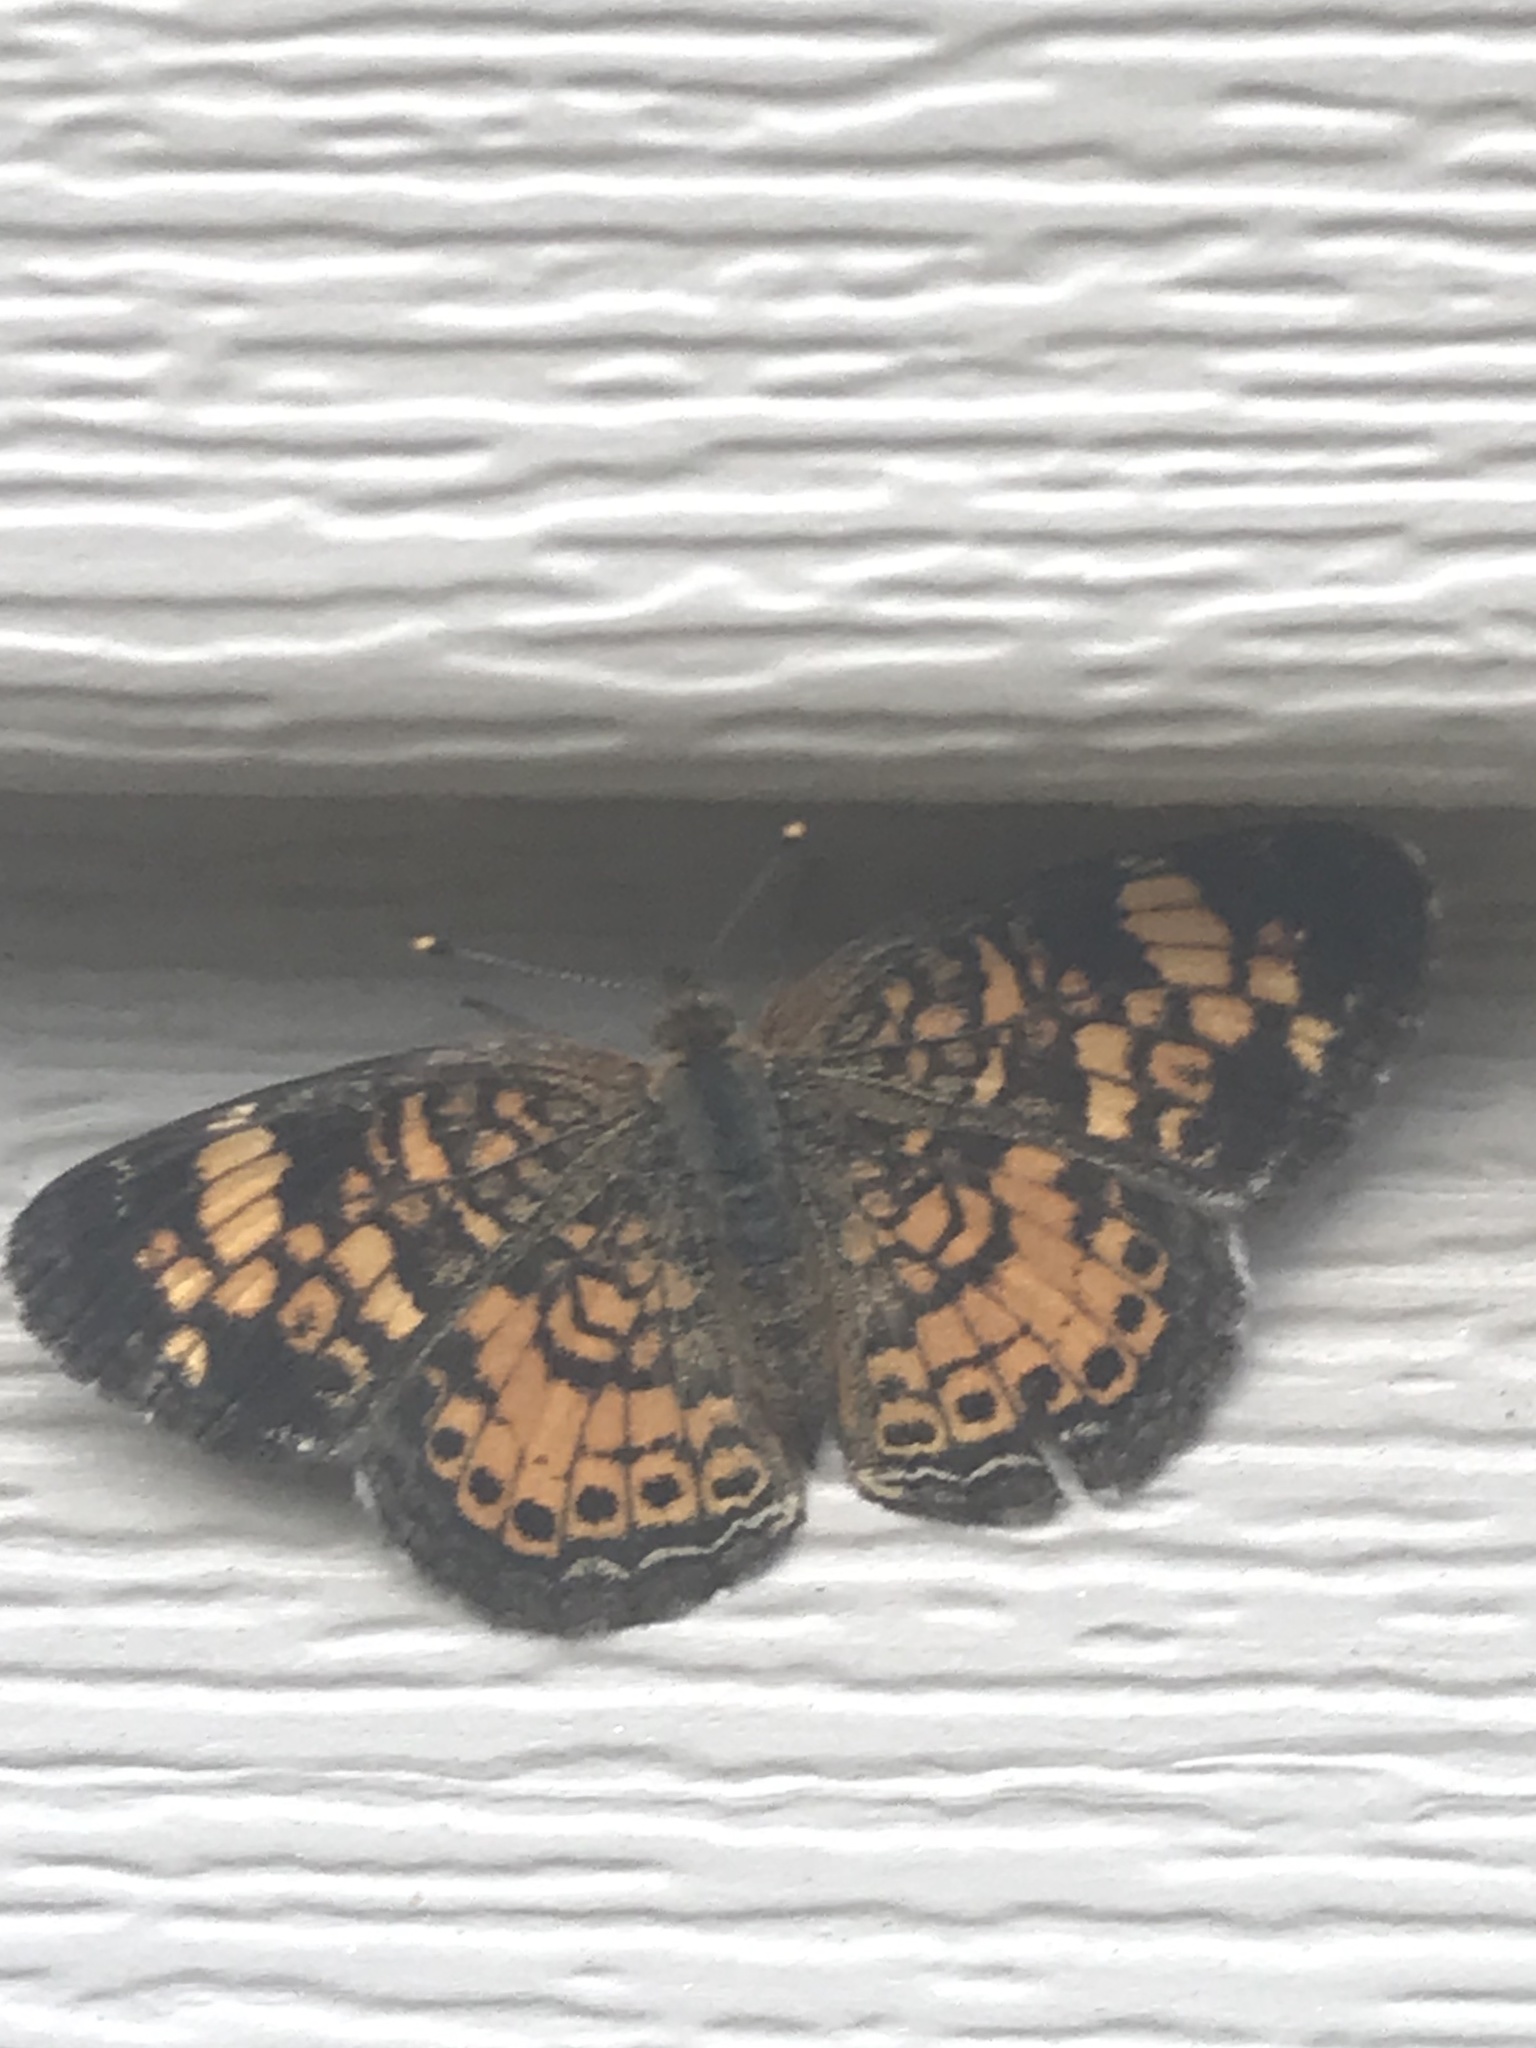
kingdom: Animalia
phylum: Arthropoda
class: Insecta
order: Lepidoptera
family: Nymphalidae
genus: Phyciodes
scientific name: Phyciodes tharos
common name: Pearl crescent
